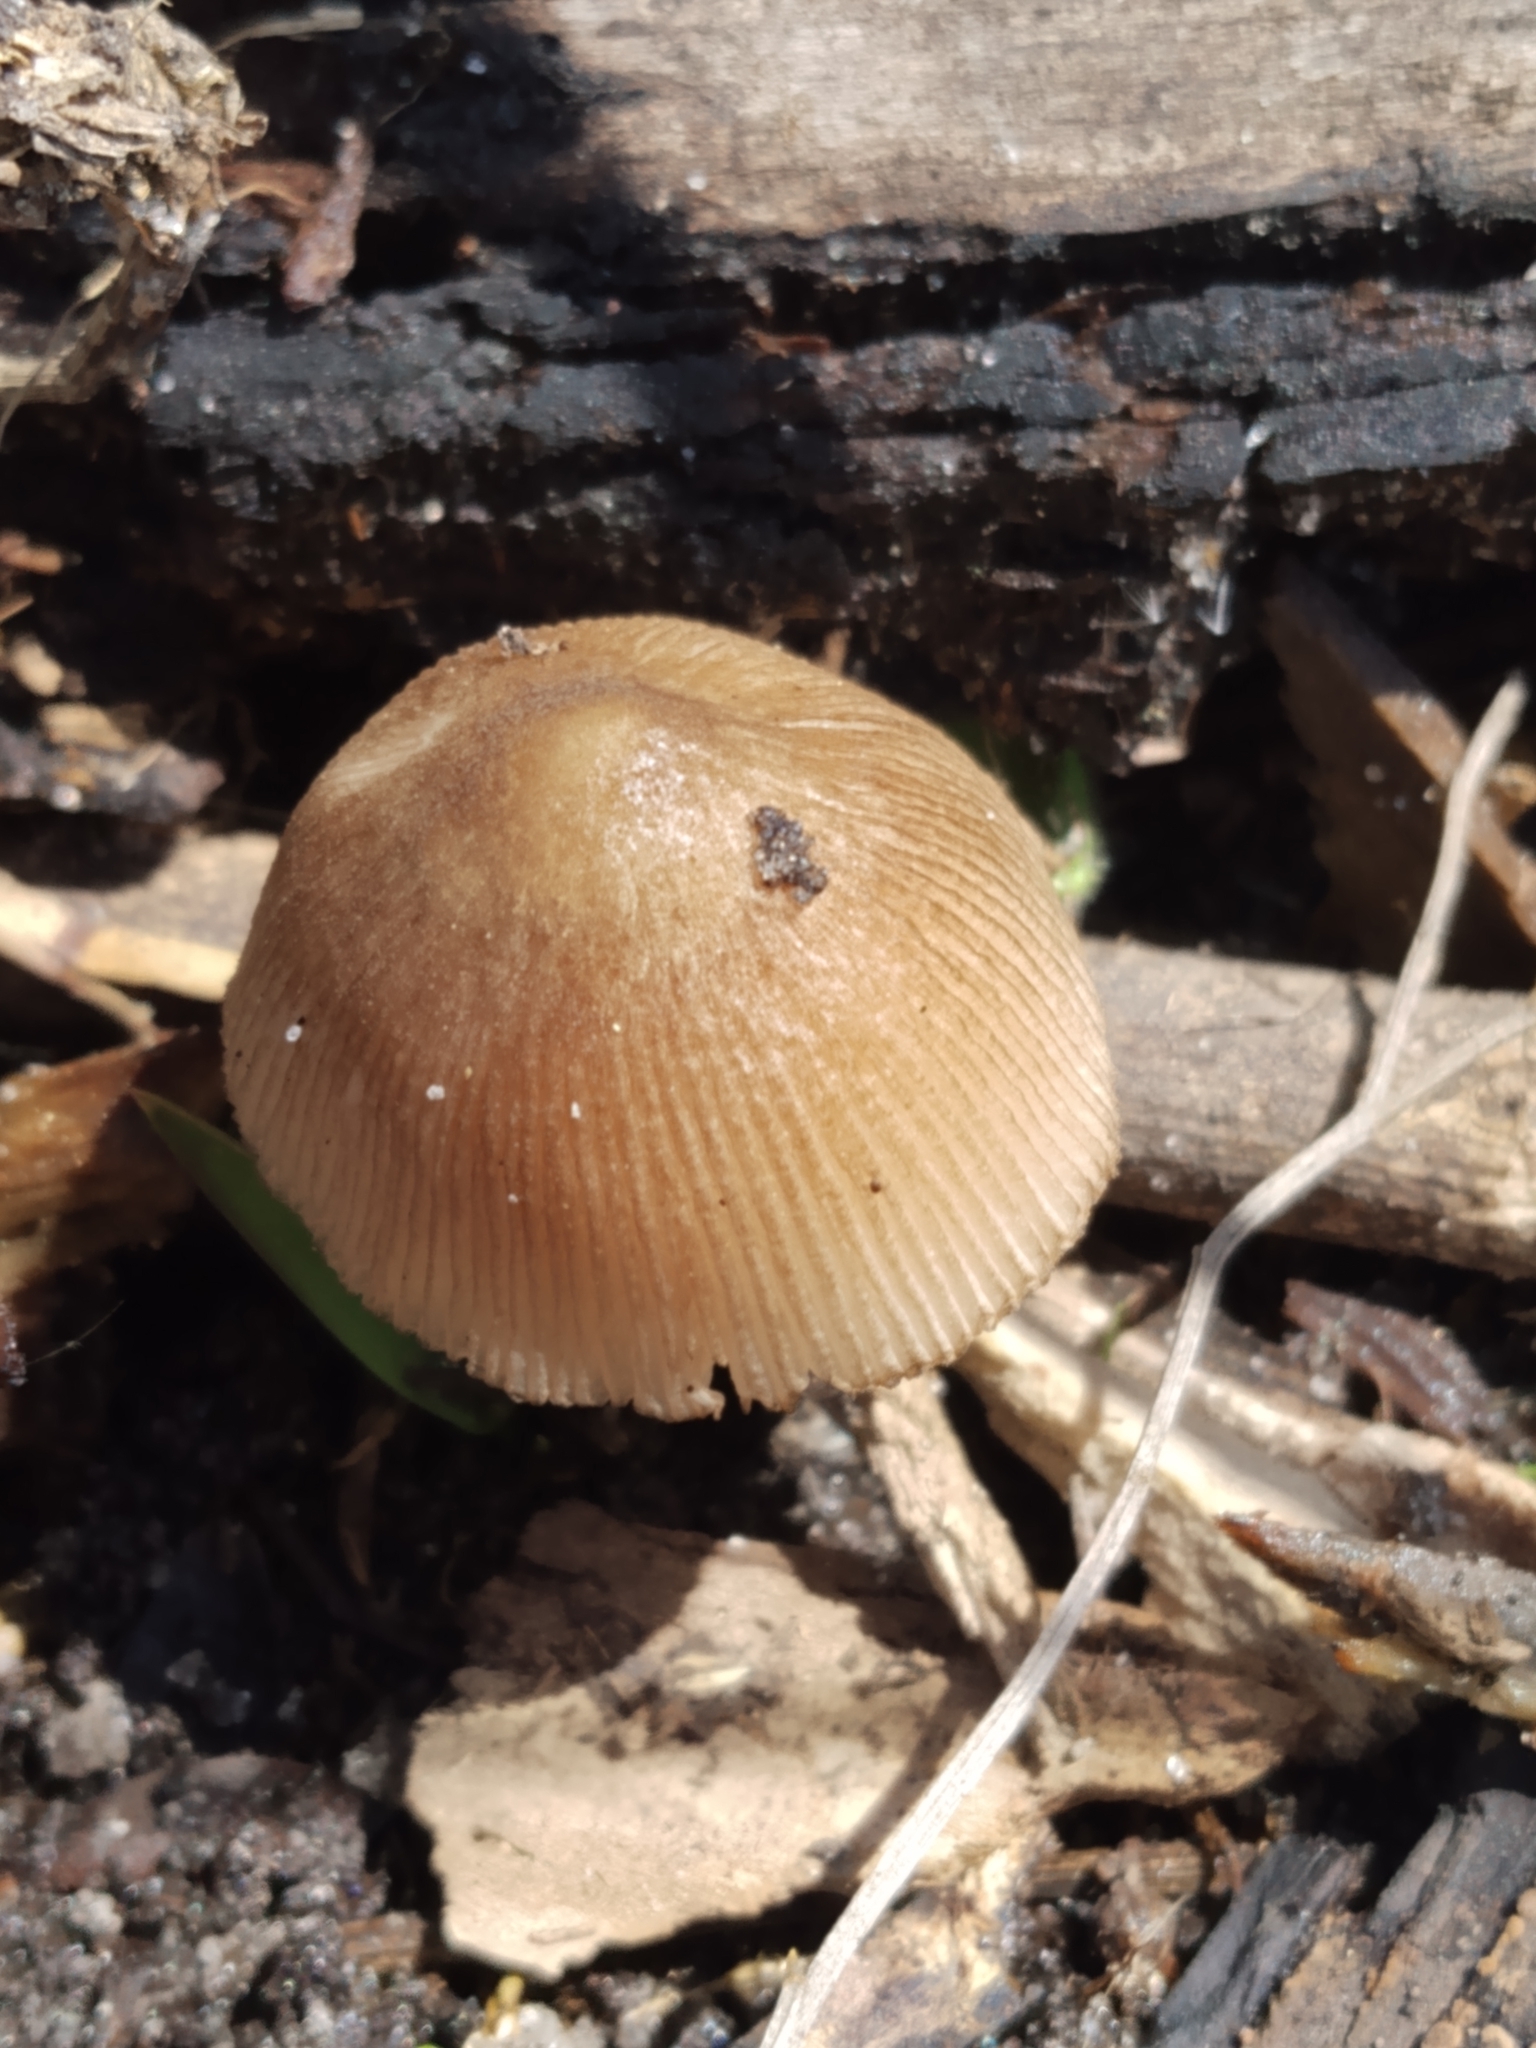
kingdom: Fungi
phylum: Basidiomycota
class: Agaricomycetes
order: Agaricales
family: Pluteaceae
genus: Pluteus
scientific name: Pluteus longistriatus
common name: Pleated pluteus
